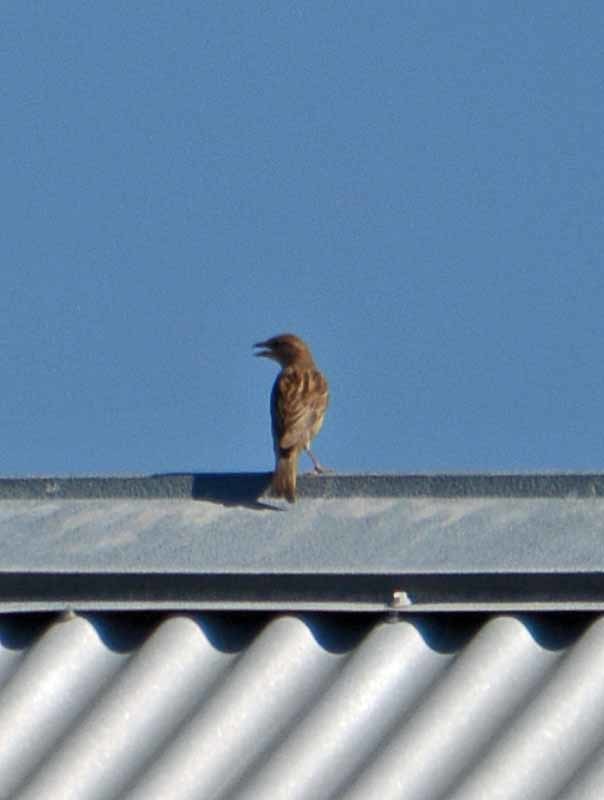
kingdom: Animalia
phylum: Chordata
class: Aves
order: Passeriformes
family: Passeridae
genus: Passer
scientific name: Passer domesticus
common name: House sparrow
